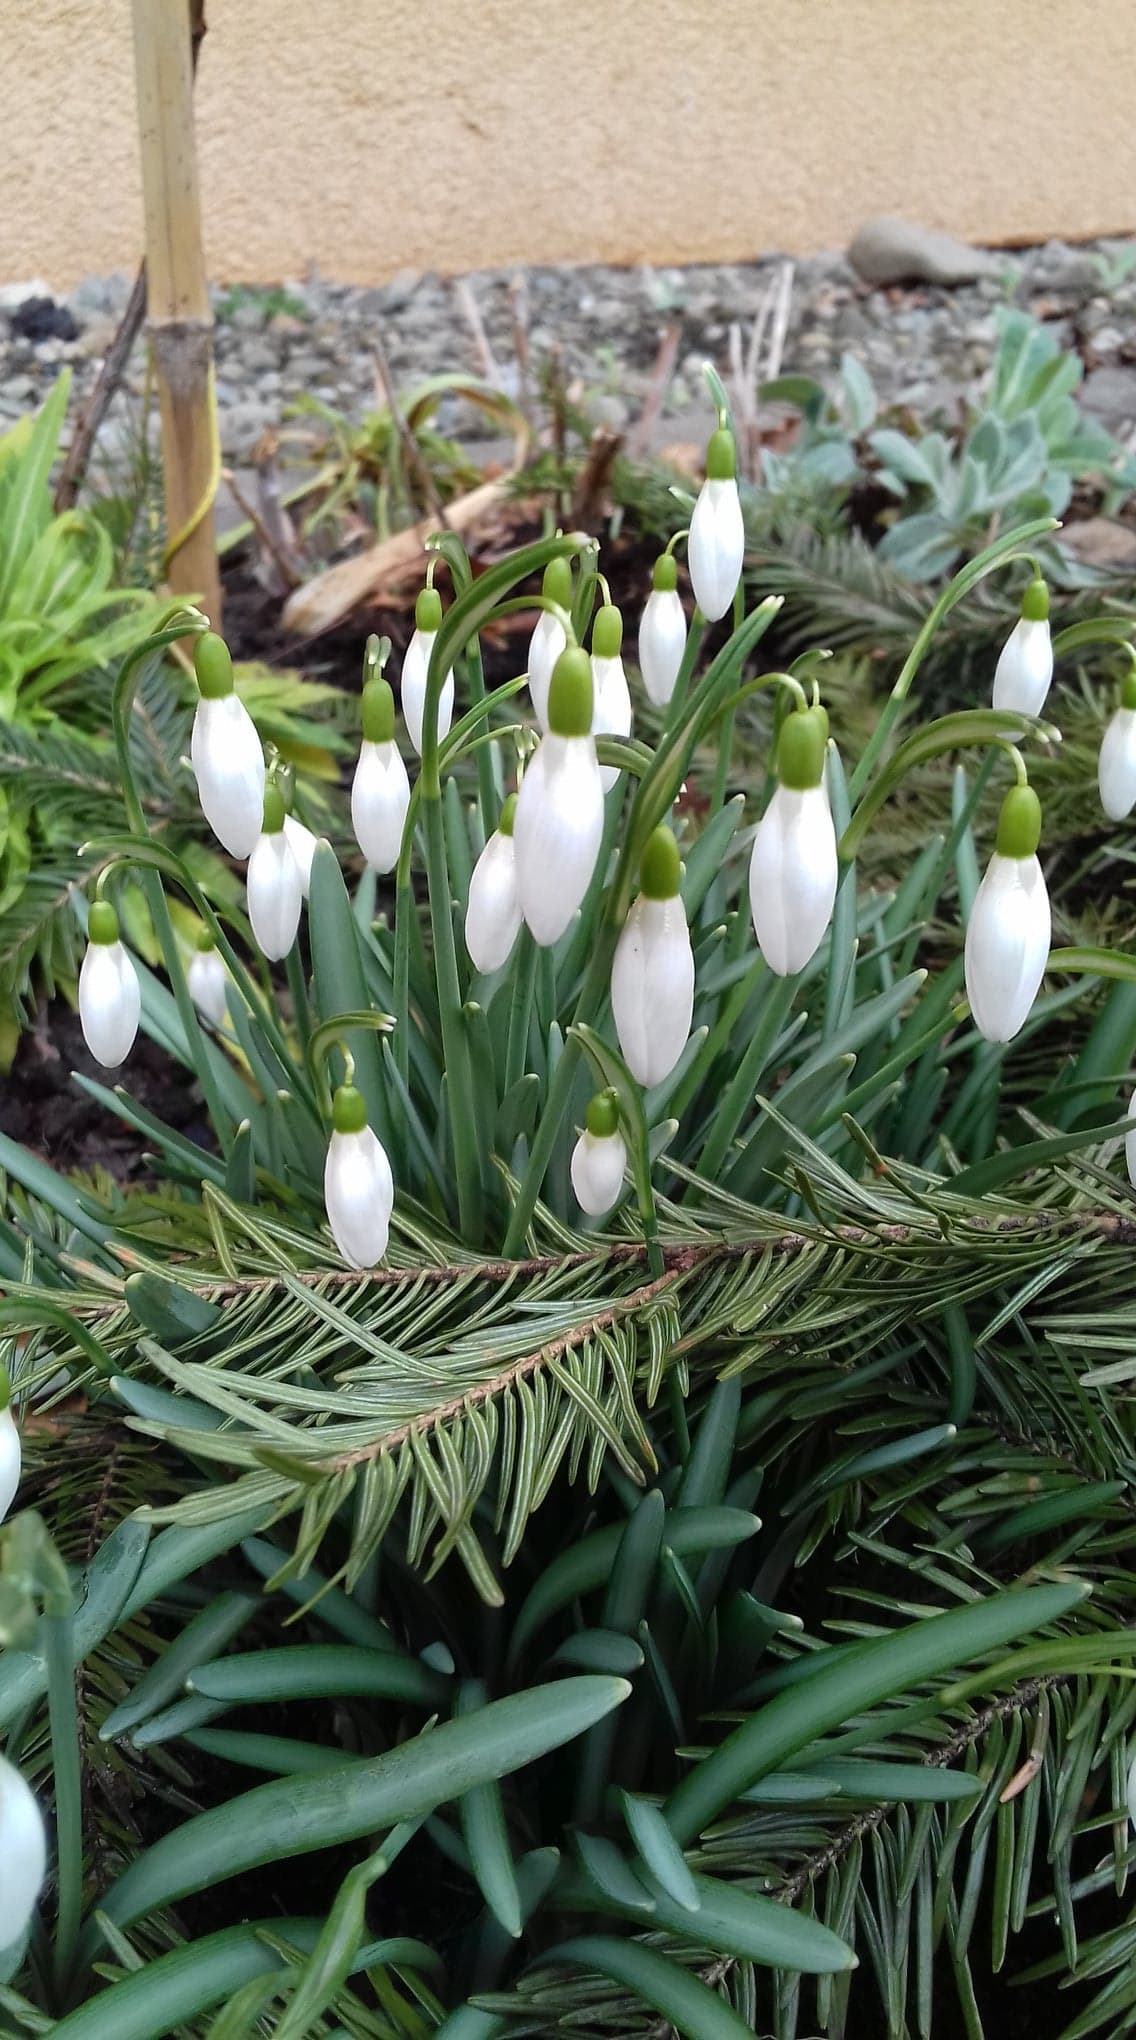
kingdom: Plantae
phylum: Tracheophyta
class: Liliopsida
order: Asparagales
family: Amaryllidaceae
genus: Galanthus
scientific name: Galanthus nivalis
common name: Snowdrop
